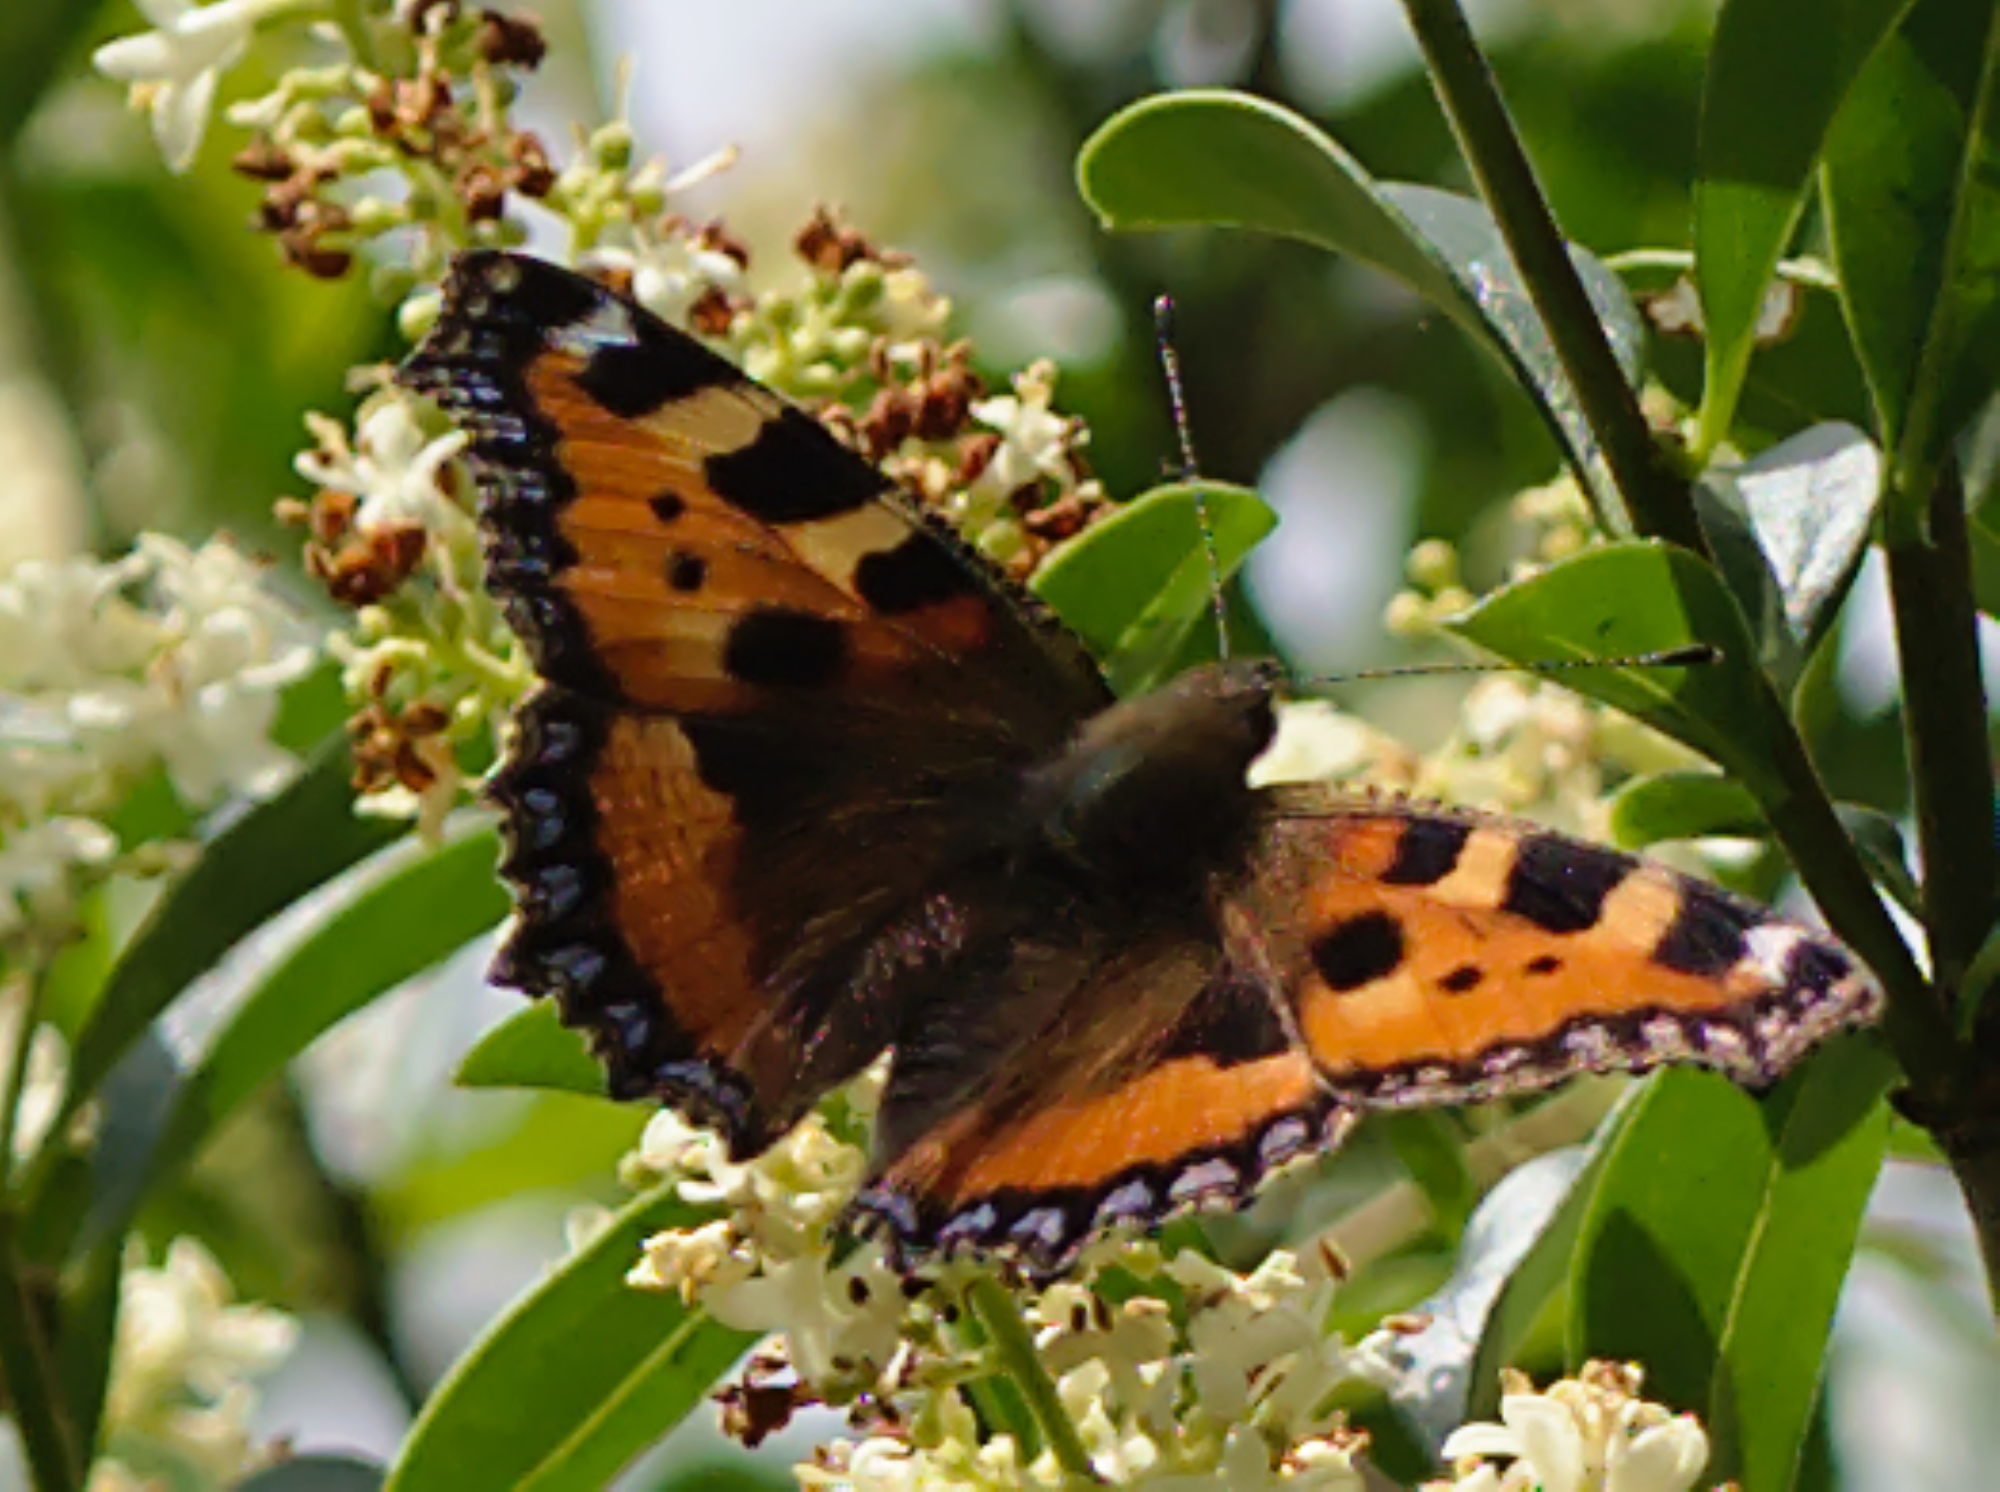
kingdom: Animalia
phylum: Arthropoda
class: Insecta
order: Lepidoptera
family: Nymphalidae
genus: Aglais
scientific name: Aglais urticae
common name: Small tortoiseshell
